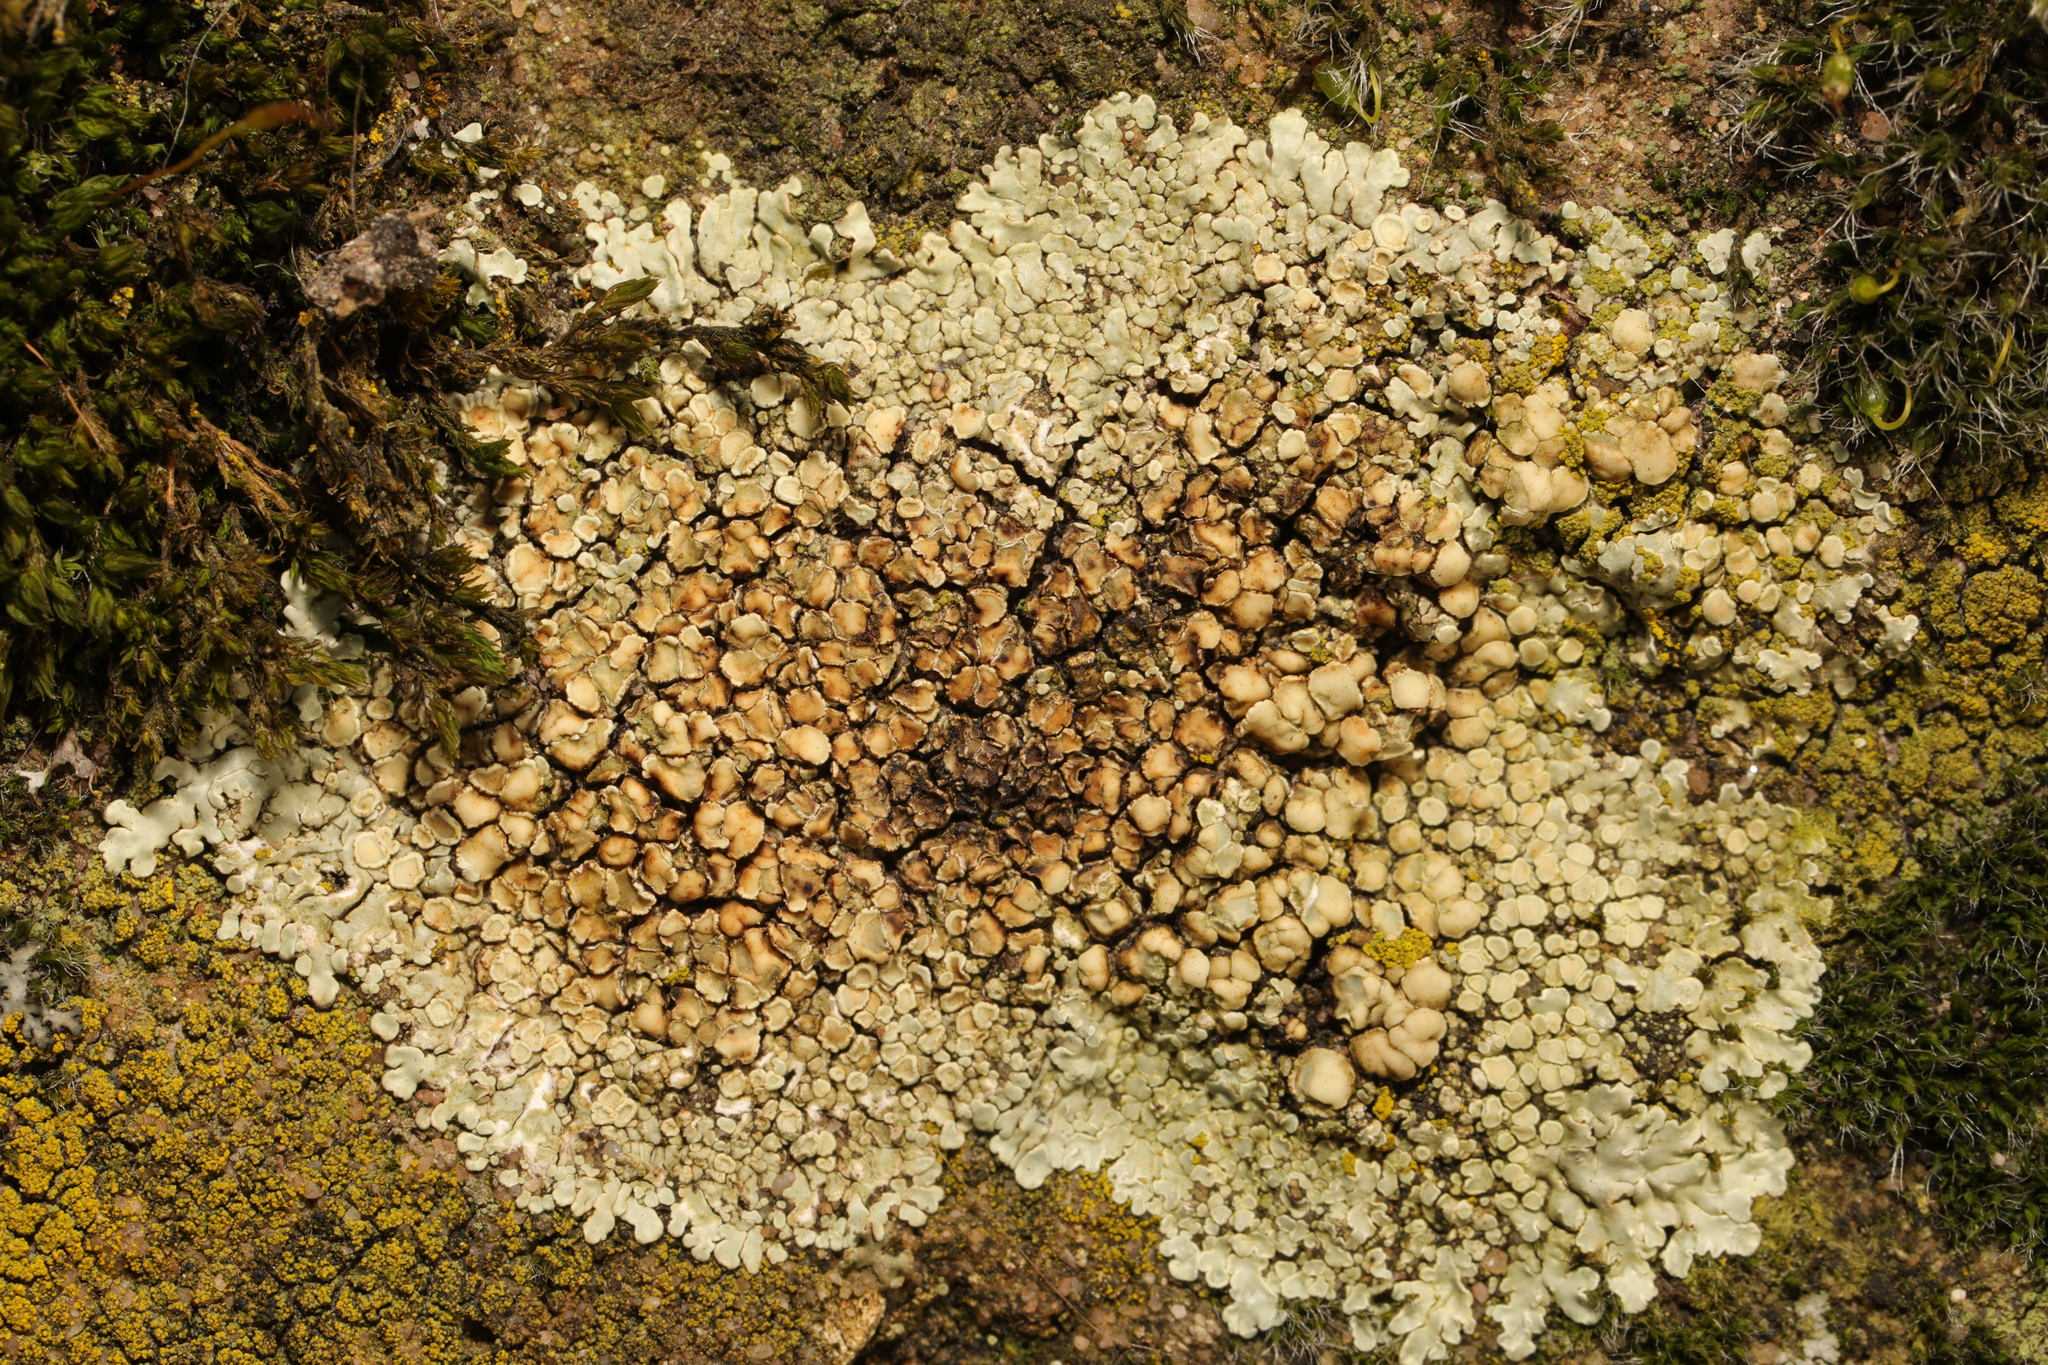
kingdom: Fungi
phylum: Ascomycota
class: Lecanoromycetes
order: Lecanorales
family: Lecanoraceae
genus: Protoparmeliopsis
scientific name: Protoparmeliopsis muralis
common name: Stonewall rim lichen
